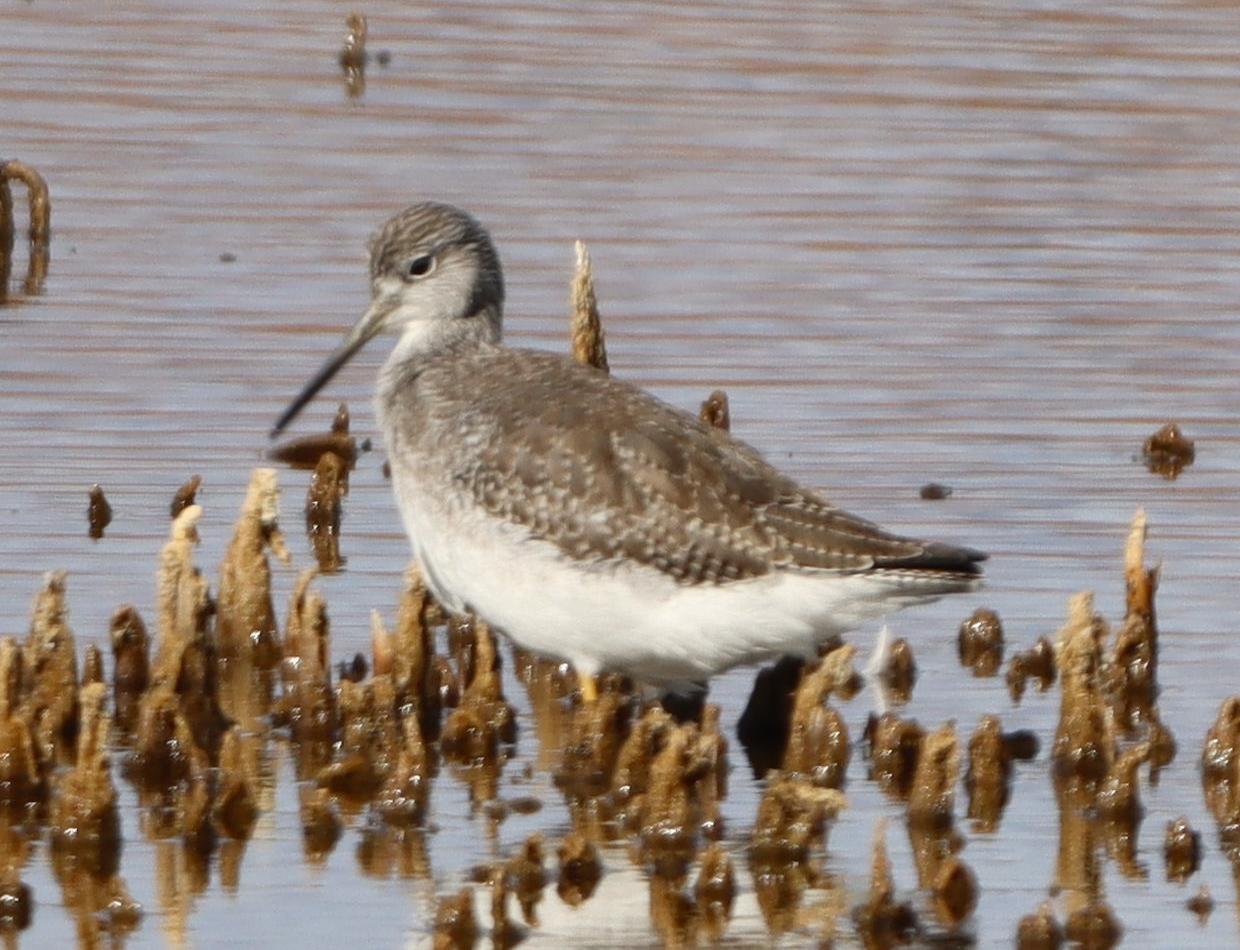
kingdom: Animalia
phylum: Chordata
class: Aves
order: Charadriiformes
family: Scolopacidae
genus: Tringa
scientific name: Tringa melanoleuca
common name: Greater yellowlegs
